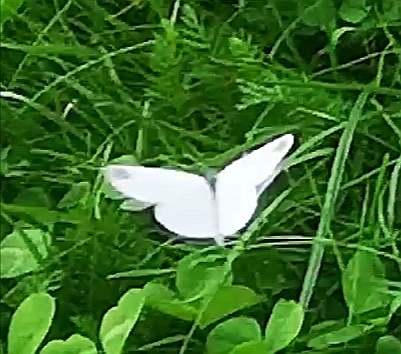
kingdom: Animalia
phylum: Arthropoda
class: Insecta
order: Lepidoptera
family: Pieridae
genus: Leptidea
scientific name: Leptidea
